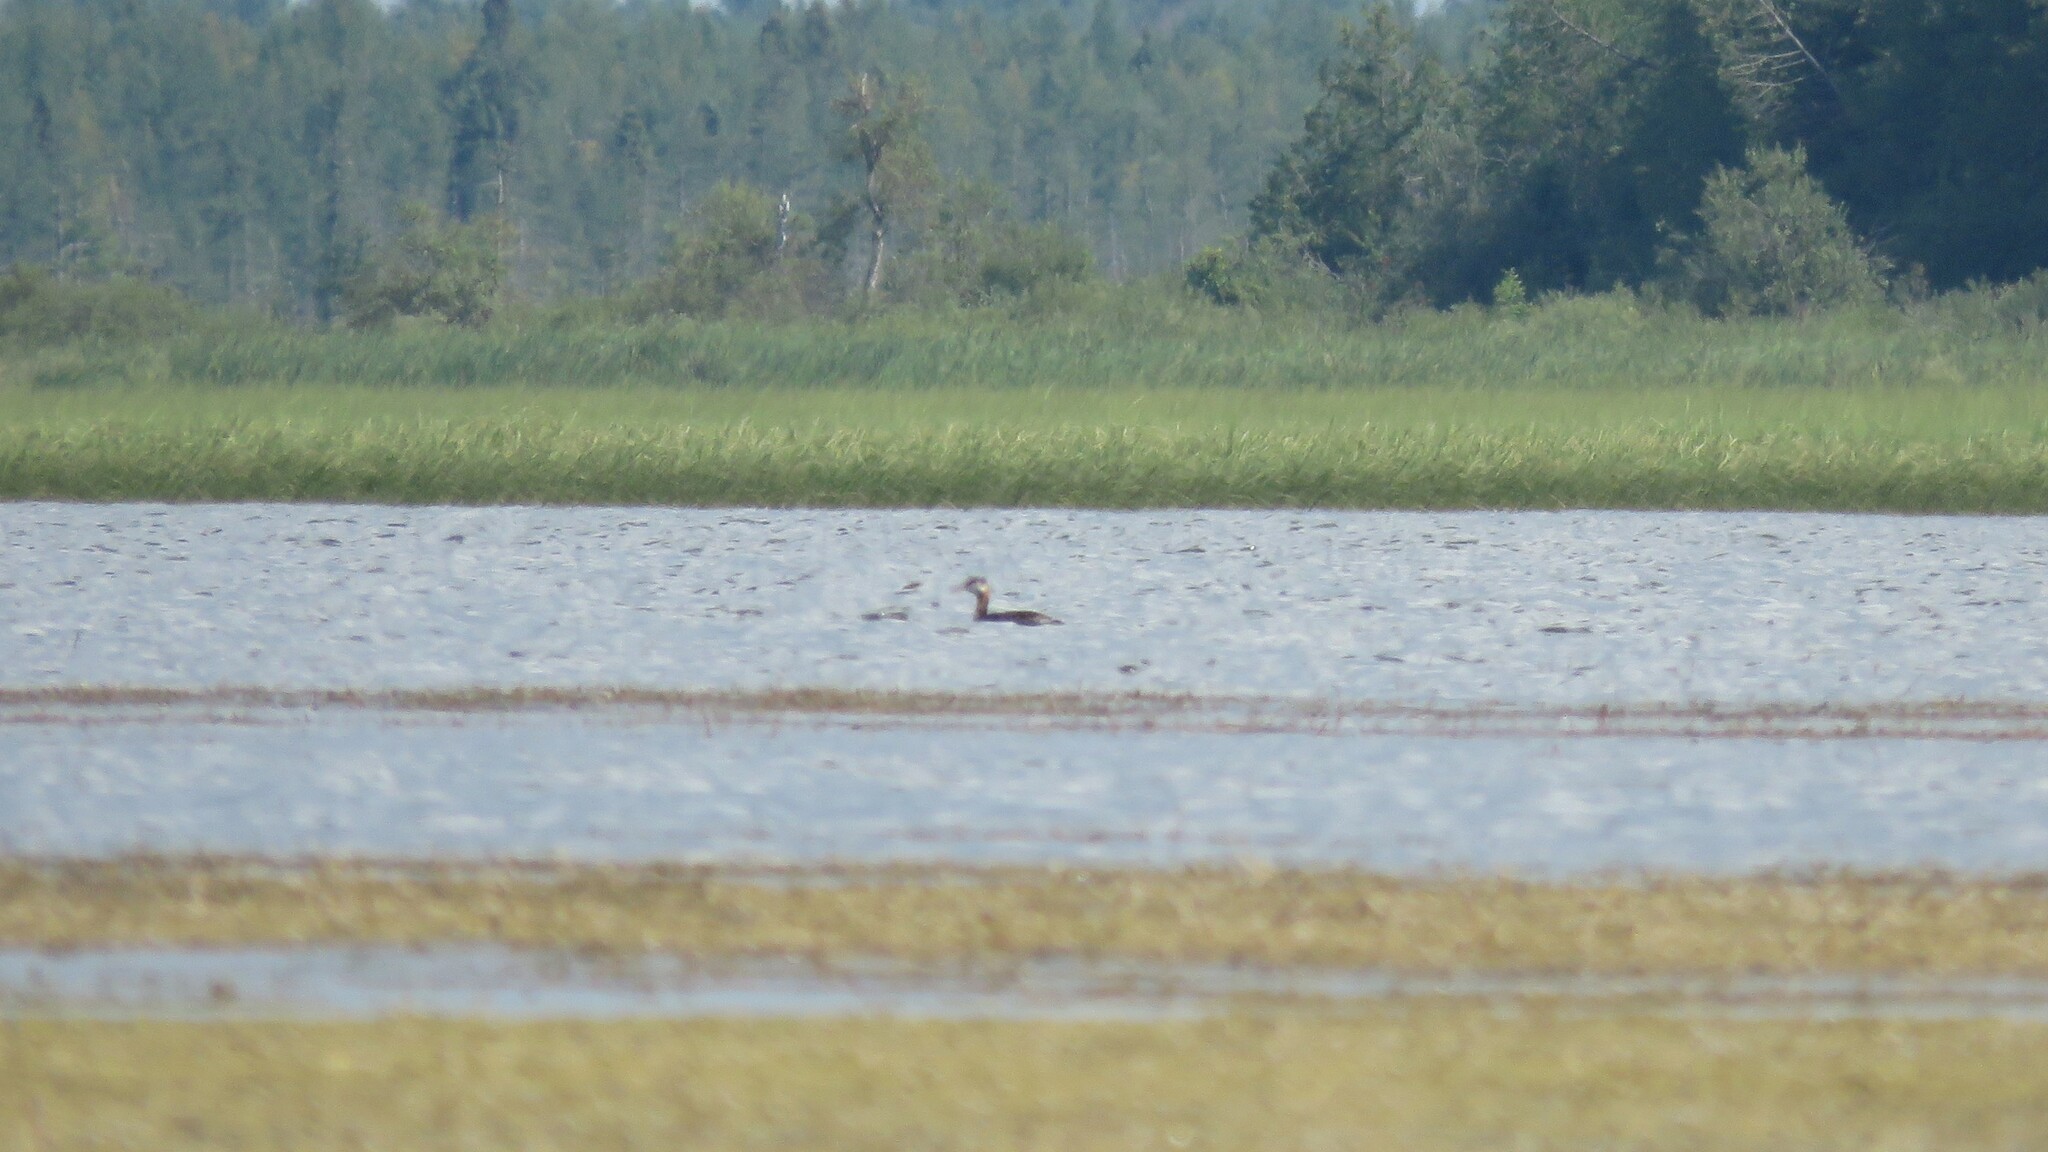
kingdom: Animalia
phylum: Chordata
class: Aves
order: Podicipediformes
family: Podicipedidae
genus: Podiceps
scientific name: Podiceps grisegena
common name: Red-necked grebe
